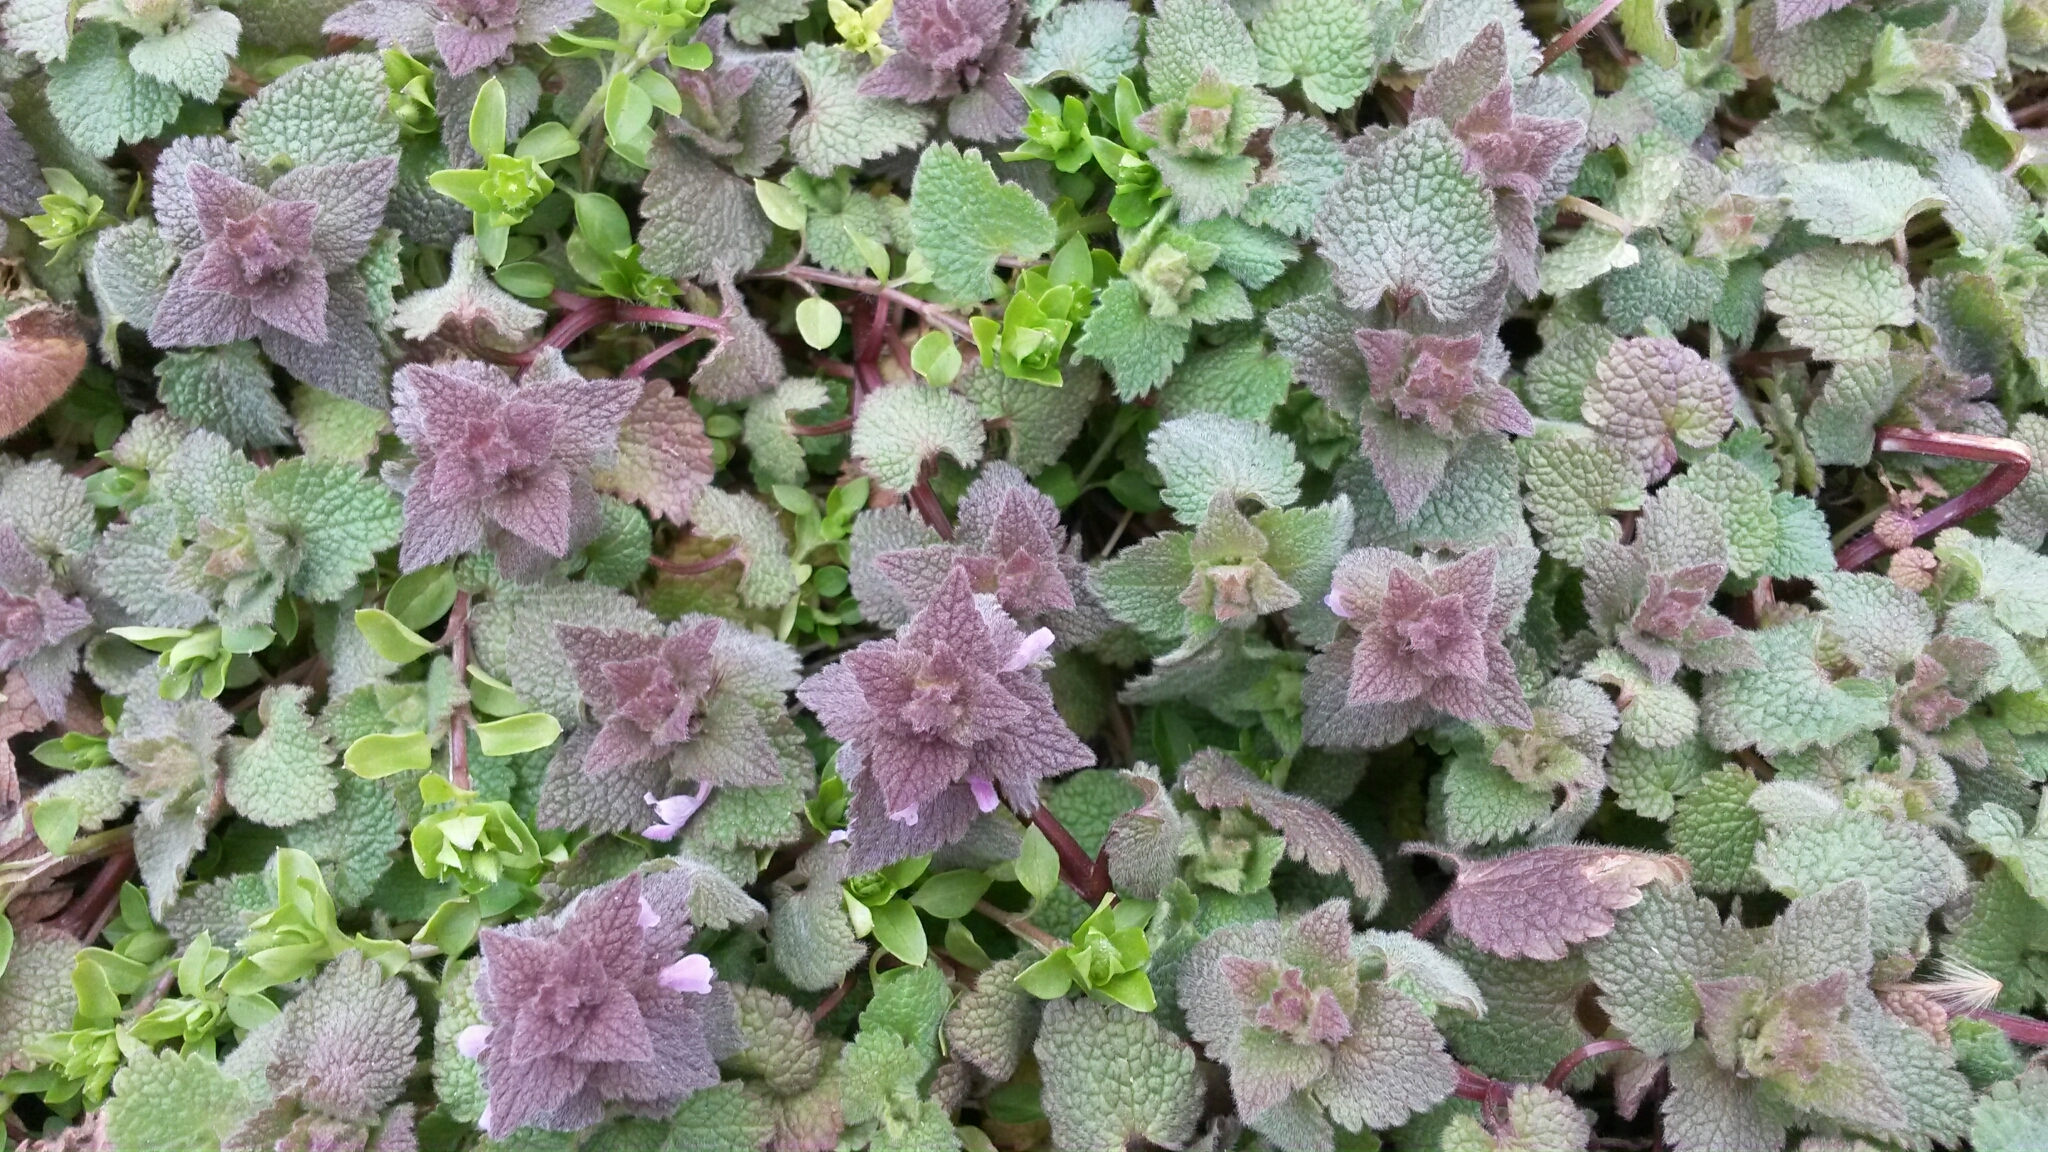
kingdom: Plantae
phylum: Tracheophyta
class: Magnoliopsida
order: Lamiales
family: Lamiaceae
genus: Lamium
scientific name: Lamium purpureum
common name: Red dead-nettle
